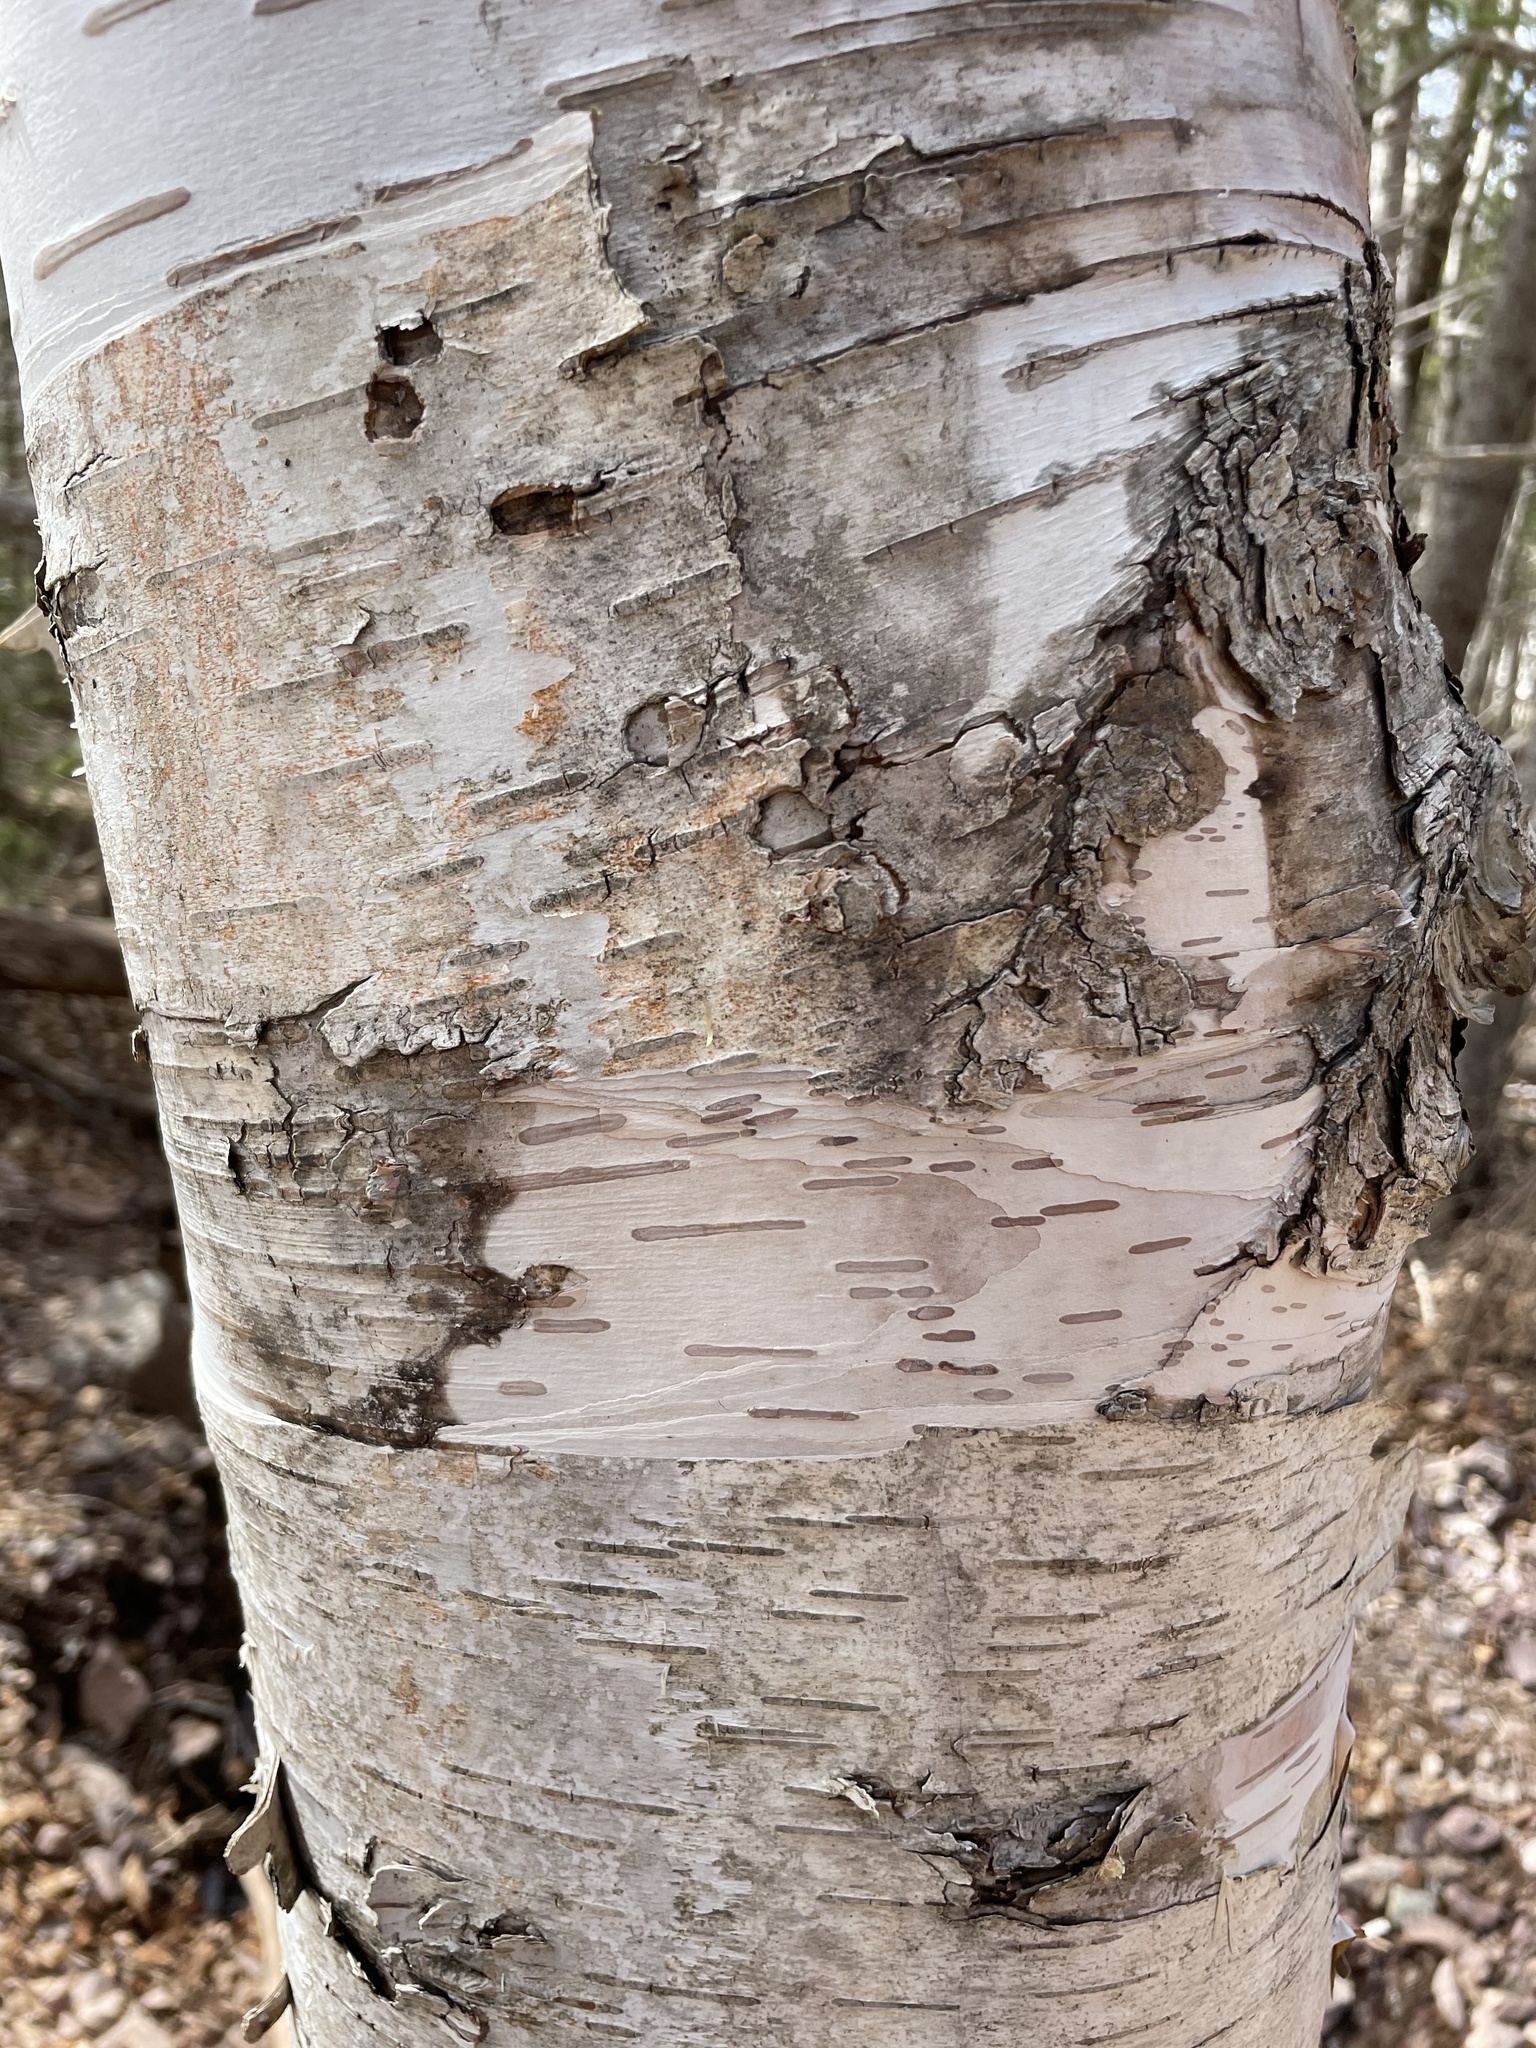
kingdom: Plantae
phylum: Tracheophyta
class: Magnoliopsida
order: Fagales
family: Betulaceae
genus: Betula
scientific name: Betula papyrifera
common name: Paper birch
